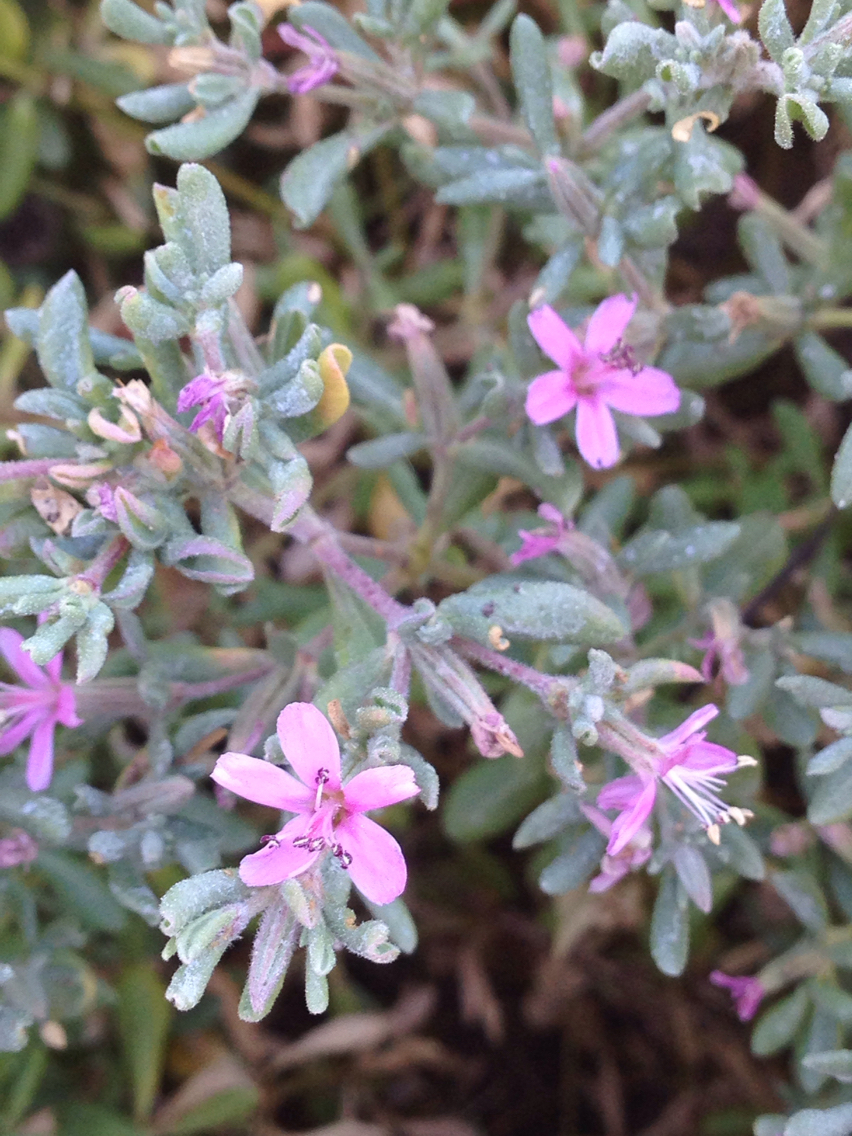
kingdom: Plantae
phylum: Tracheophyta
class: Magnoliopsida
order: Caryophyllales
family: Frankeniaceae
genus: Frankenia
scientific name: Frankenia salina
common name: Alkali seaheath
